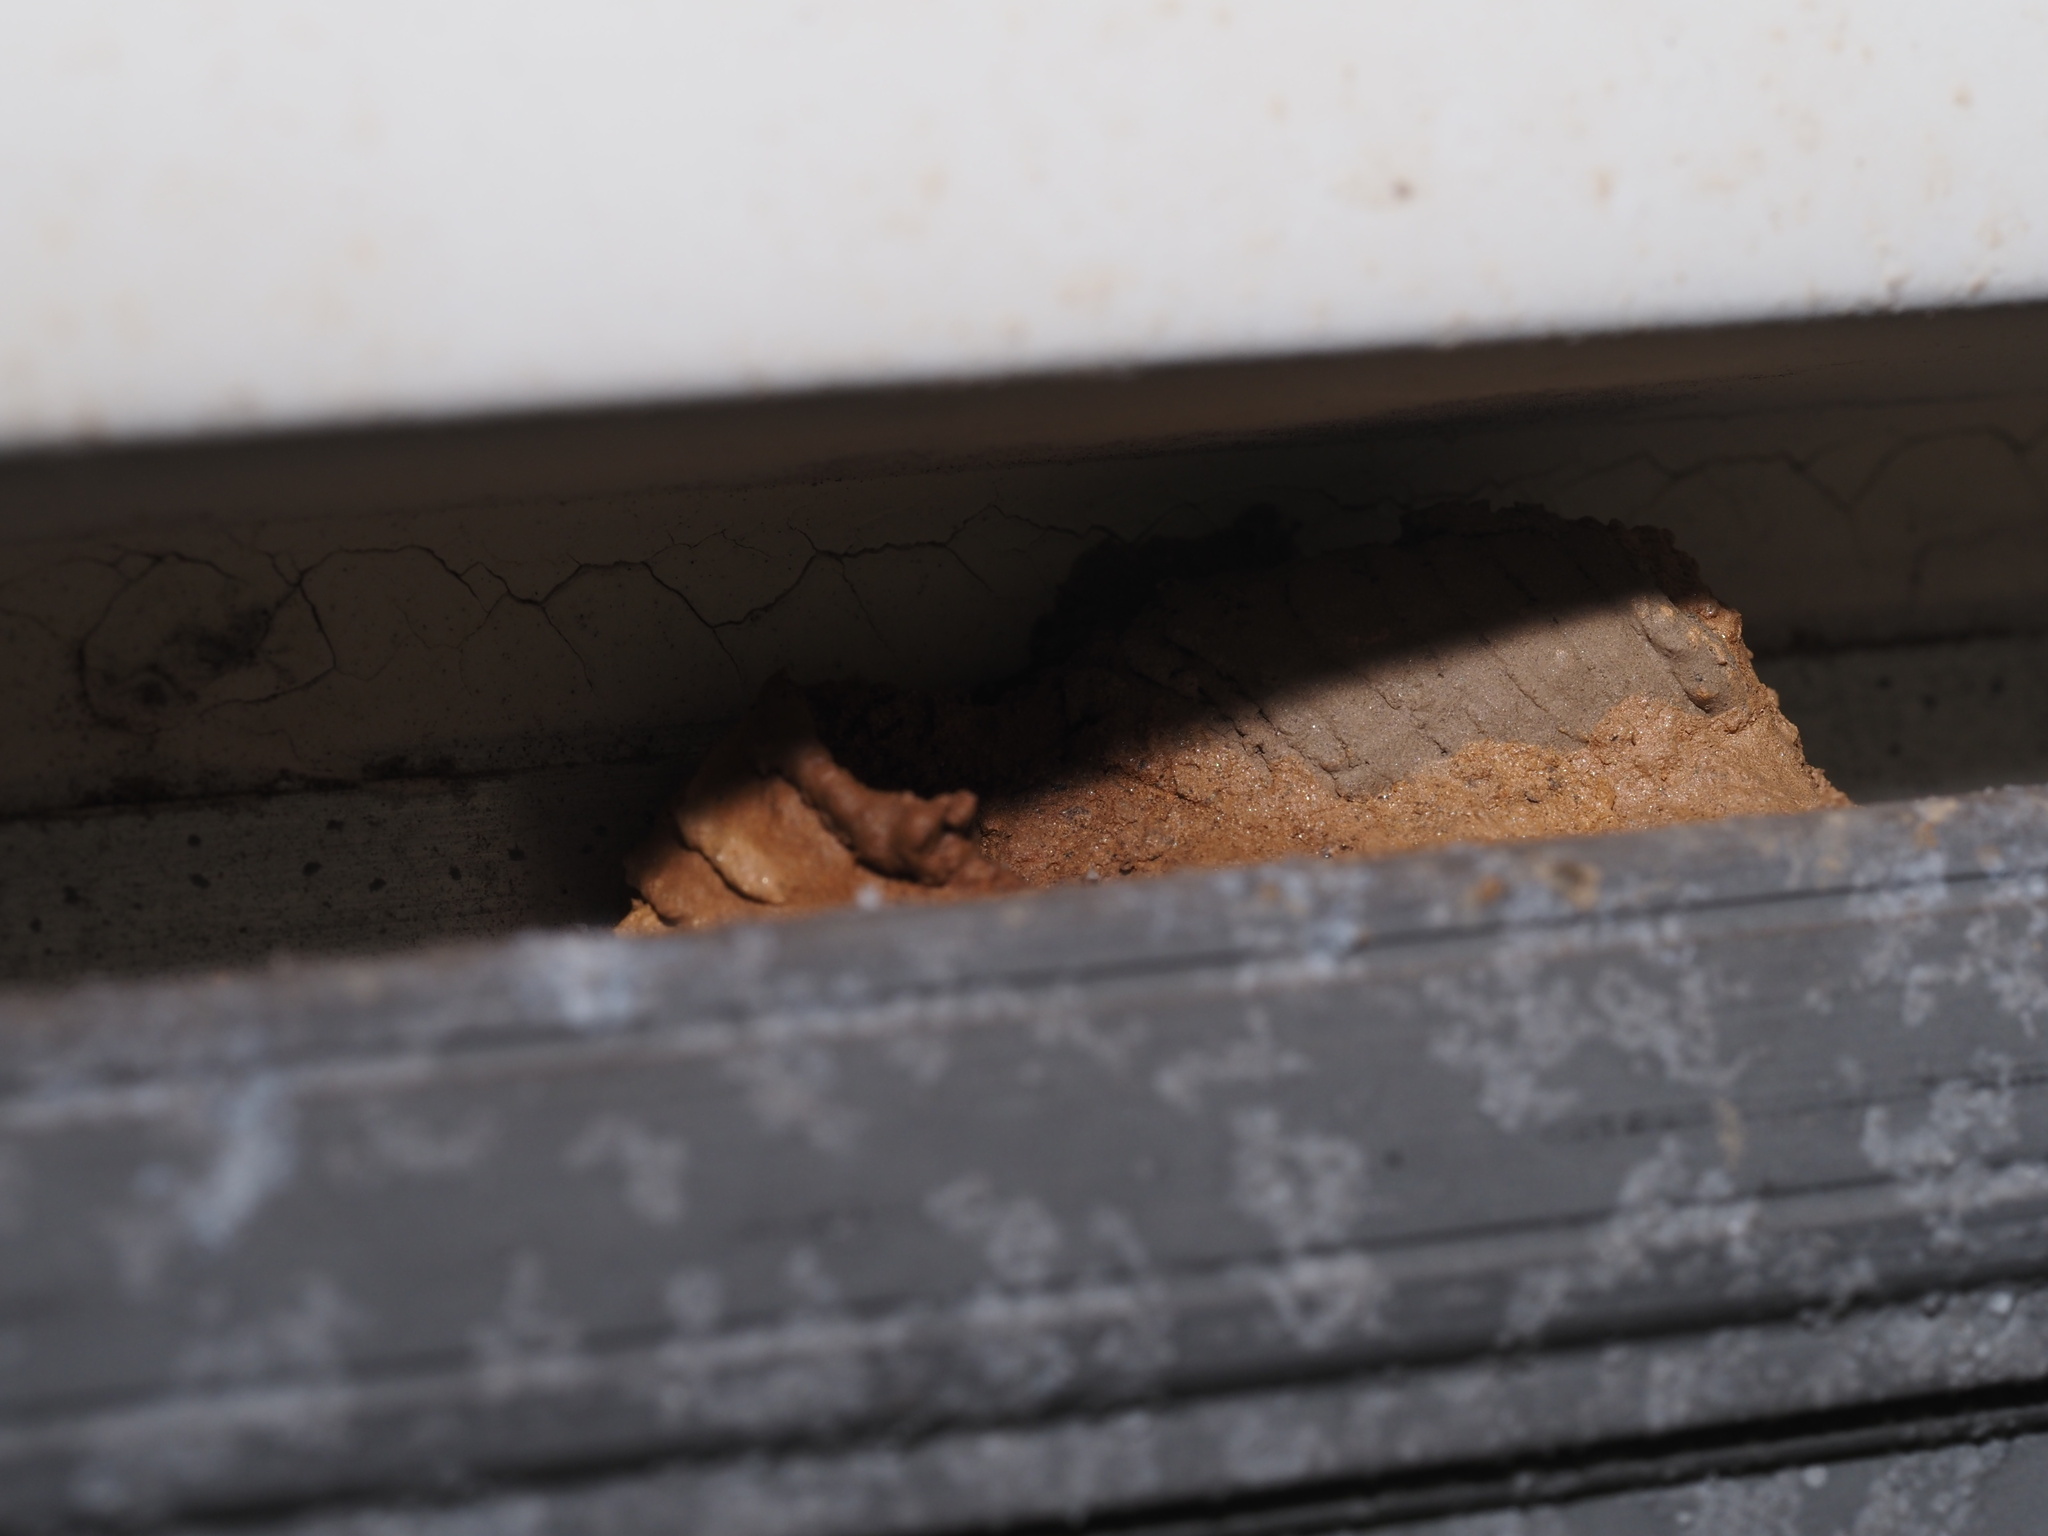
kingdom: Animalia
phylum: Arthropoda
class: Insecta
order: Hymenoptera
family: Sphecidae
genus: Sceliphron
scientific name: Sceliphron caementarium
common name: Mud dauber
